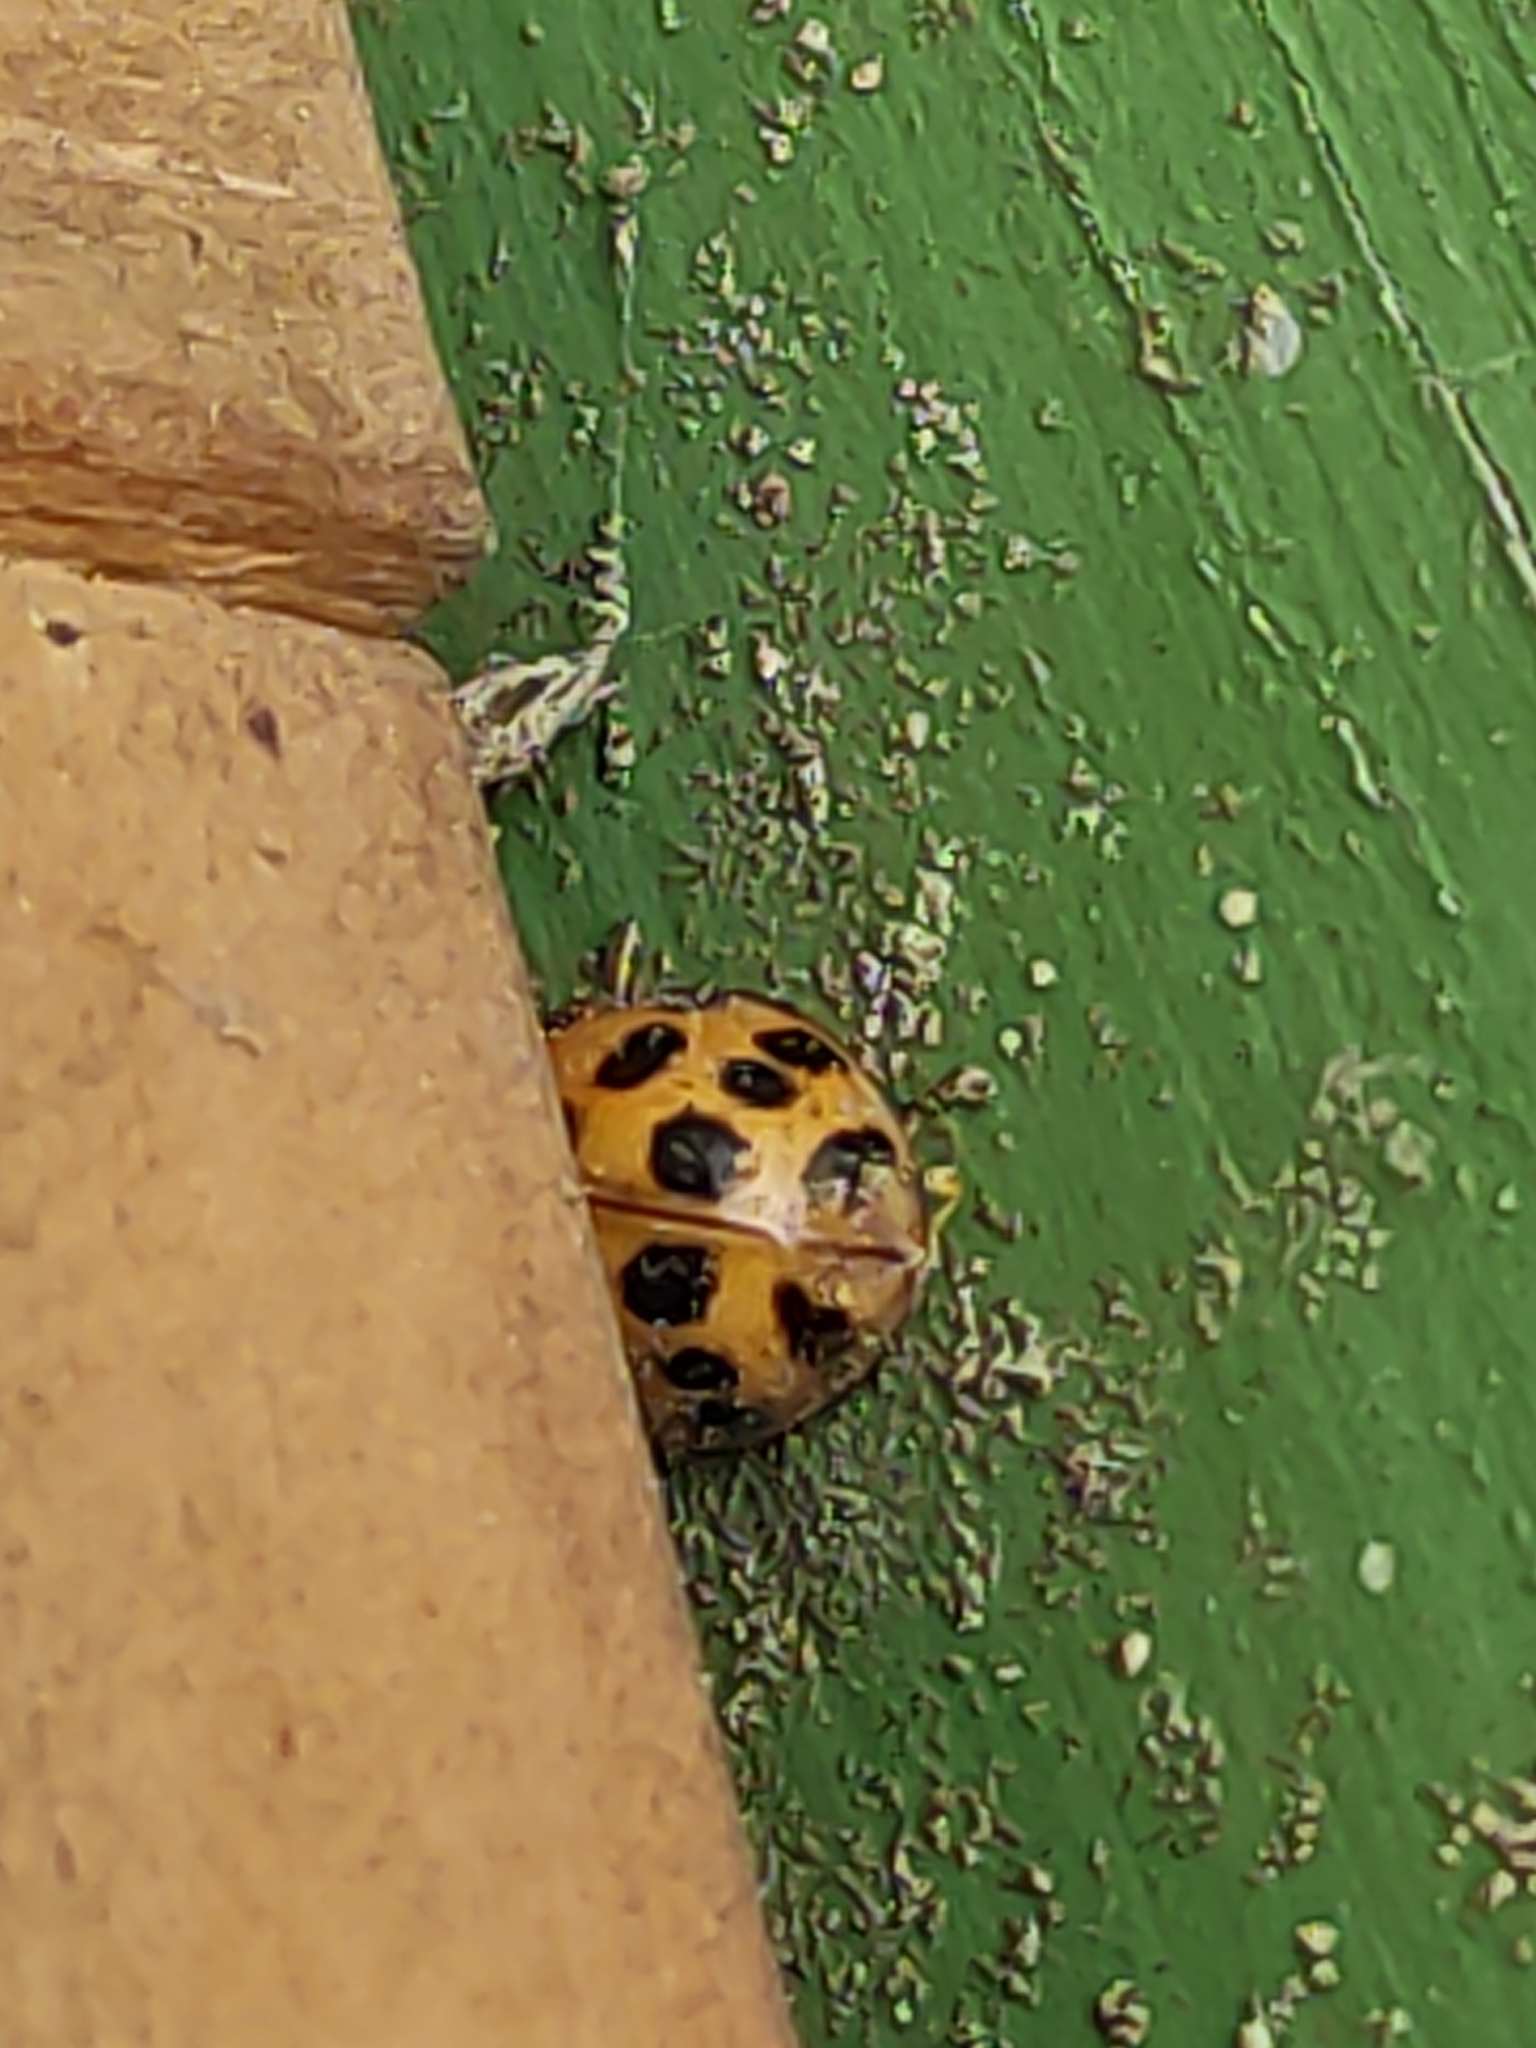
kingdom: Animalia
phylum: Arthropoda
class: Insecta
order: Coleoptera
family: Coccinellidae
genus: Harmonia
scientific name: Harmonia axyridis
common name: Harlequin ladybird
